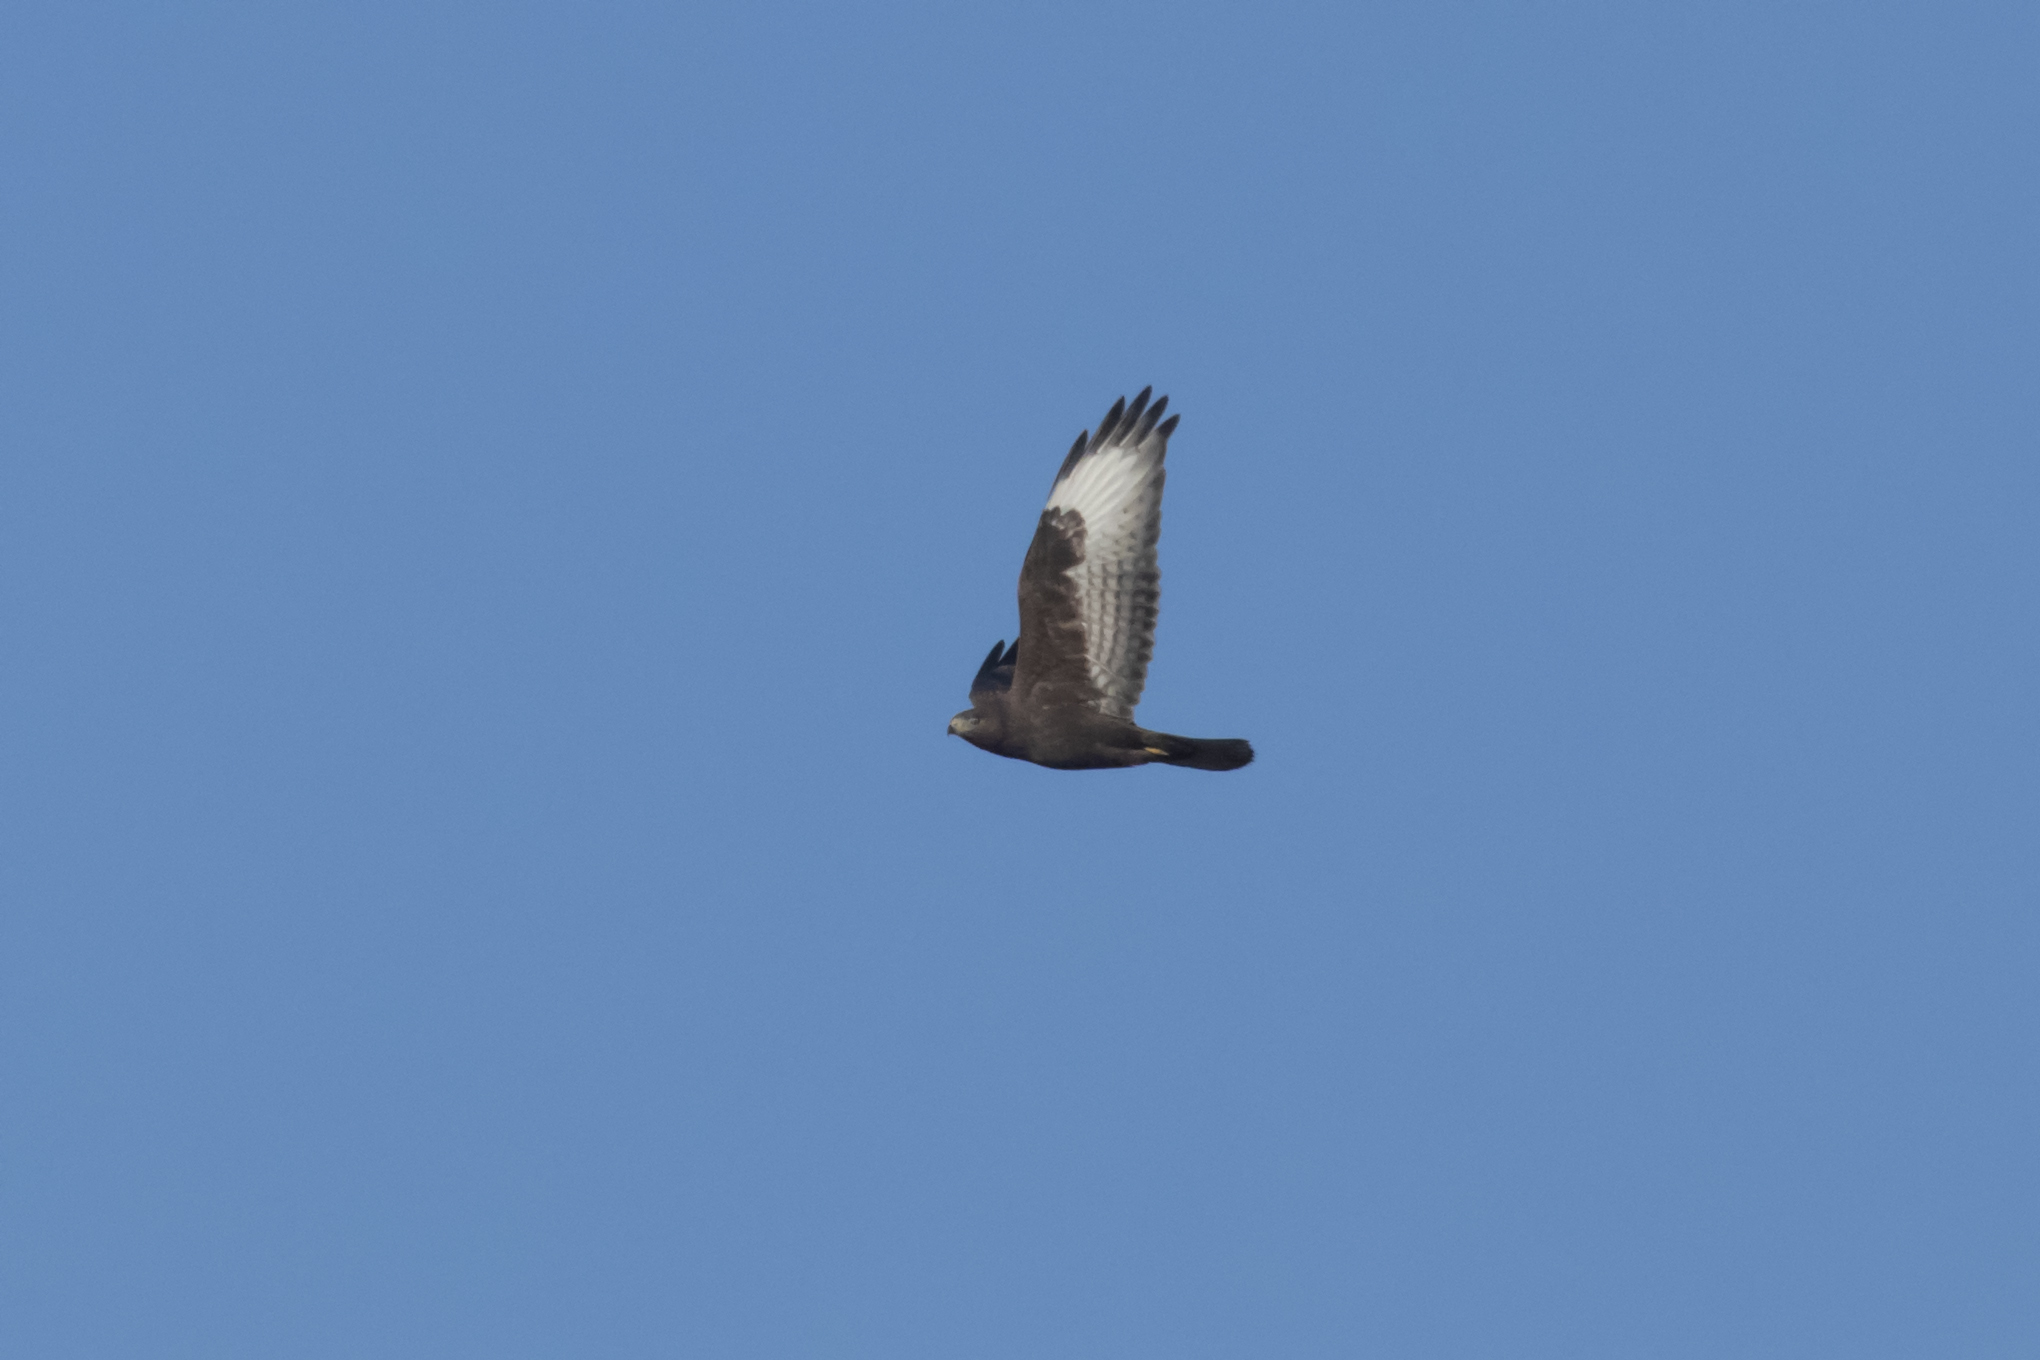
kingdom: Animalia
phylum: Chordata
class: Aves
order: Accipitriformes
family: Accipitridae
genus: Buteo
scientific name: Buteo buteo
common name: Common buzzard
